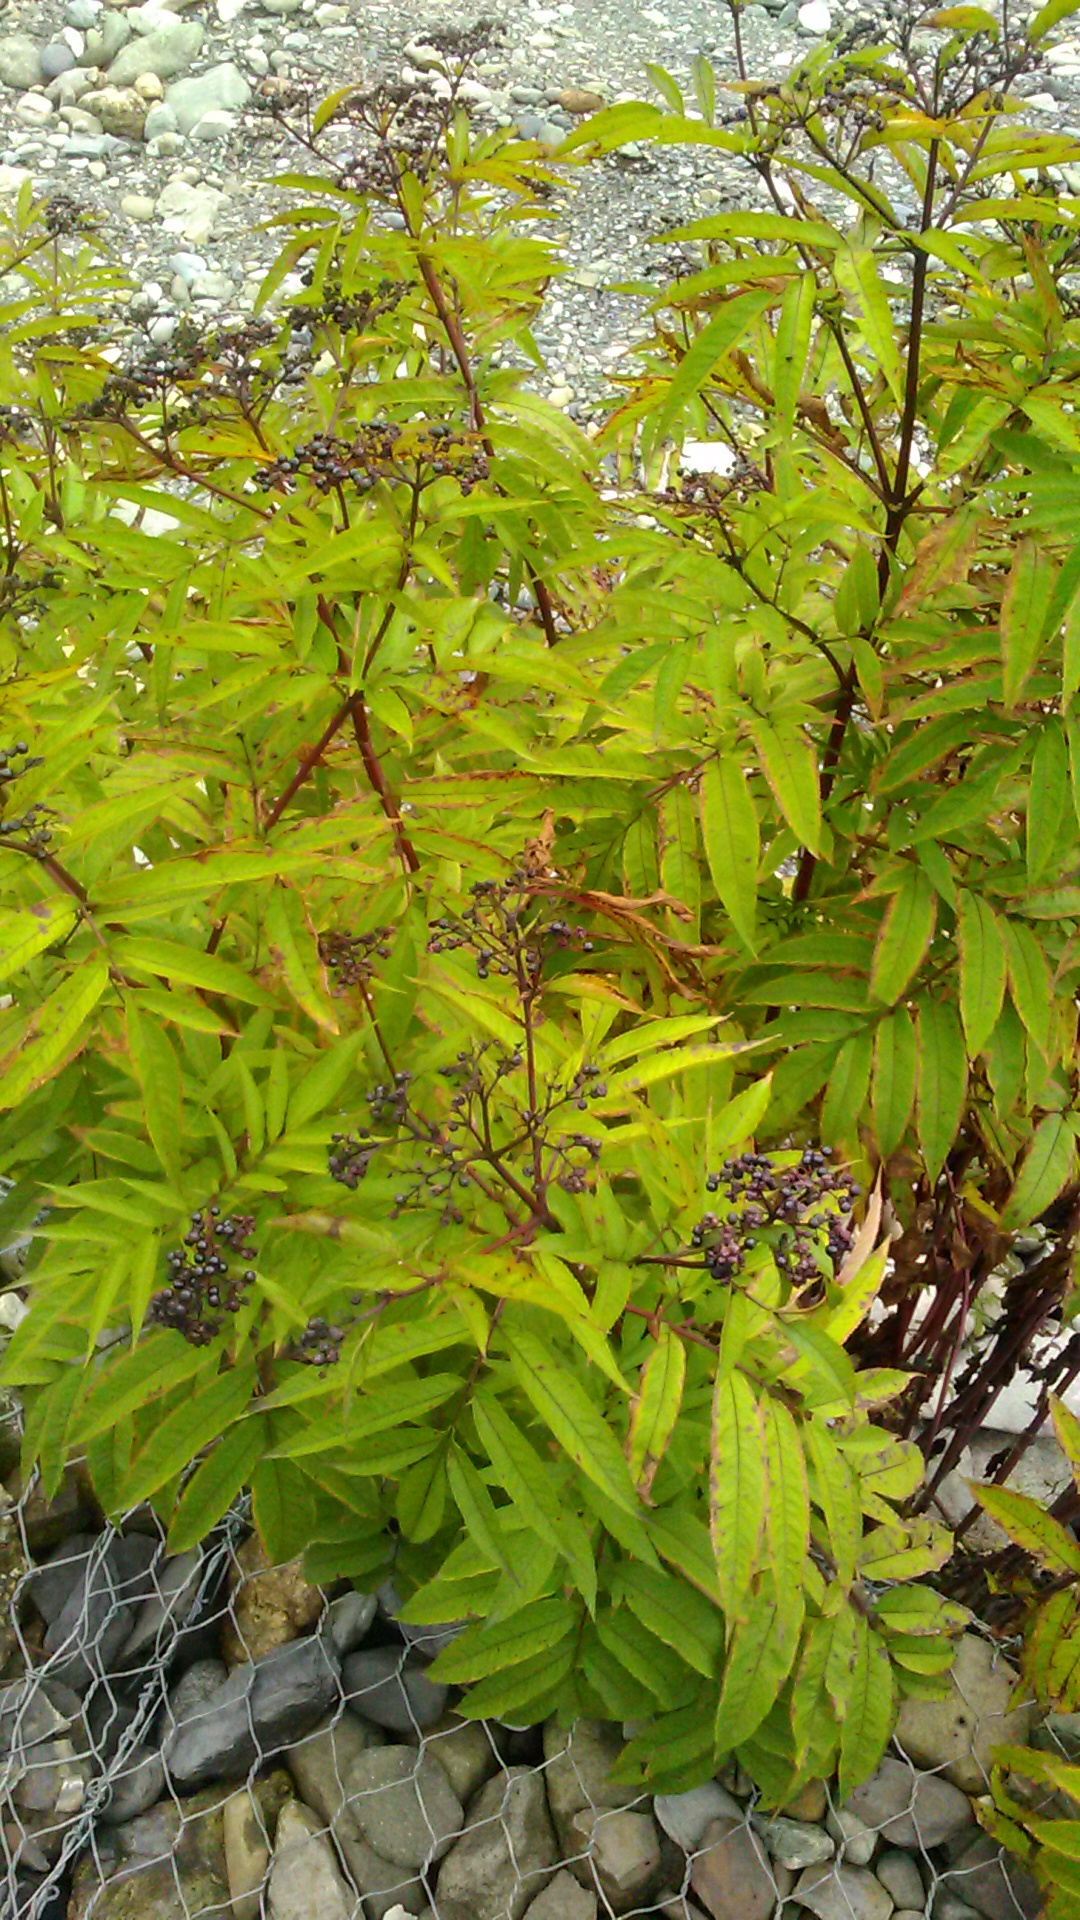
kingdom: Plantae
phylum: Tracheophyta
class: Magnoliopsida
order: Dipsacales
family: Viburnaceae
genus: Sambucus
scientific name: Sambucus ebulus
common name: Dwarf elder
